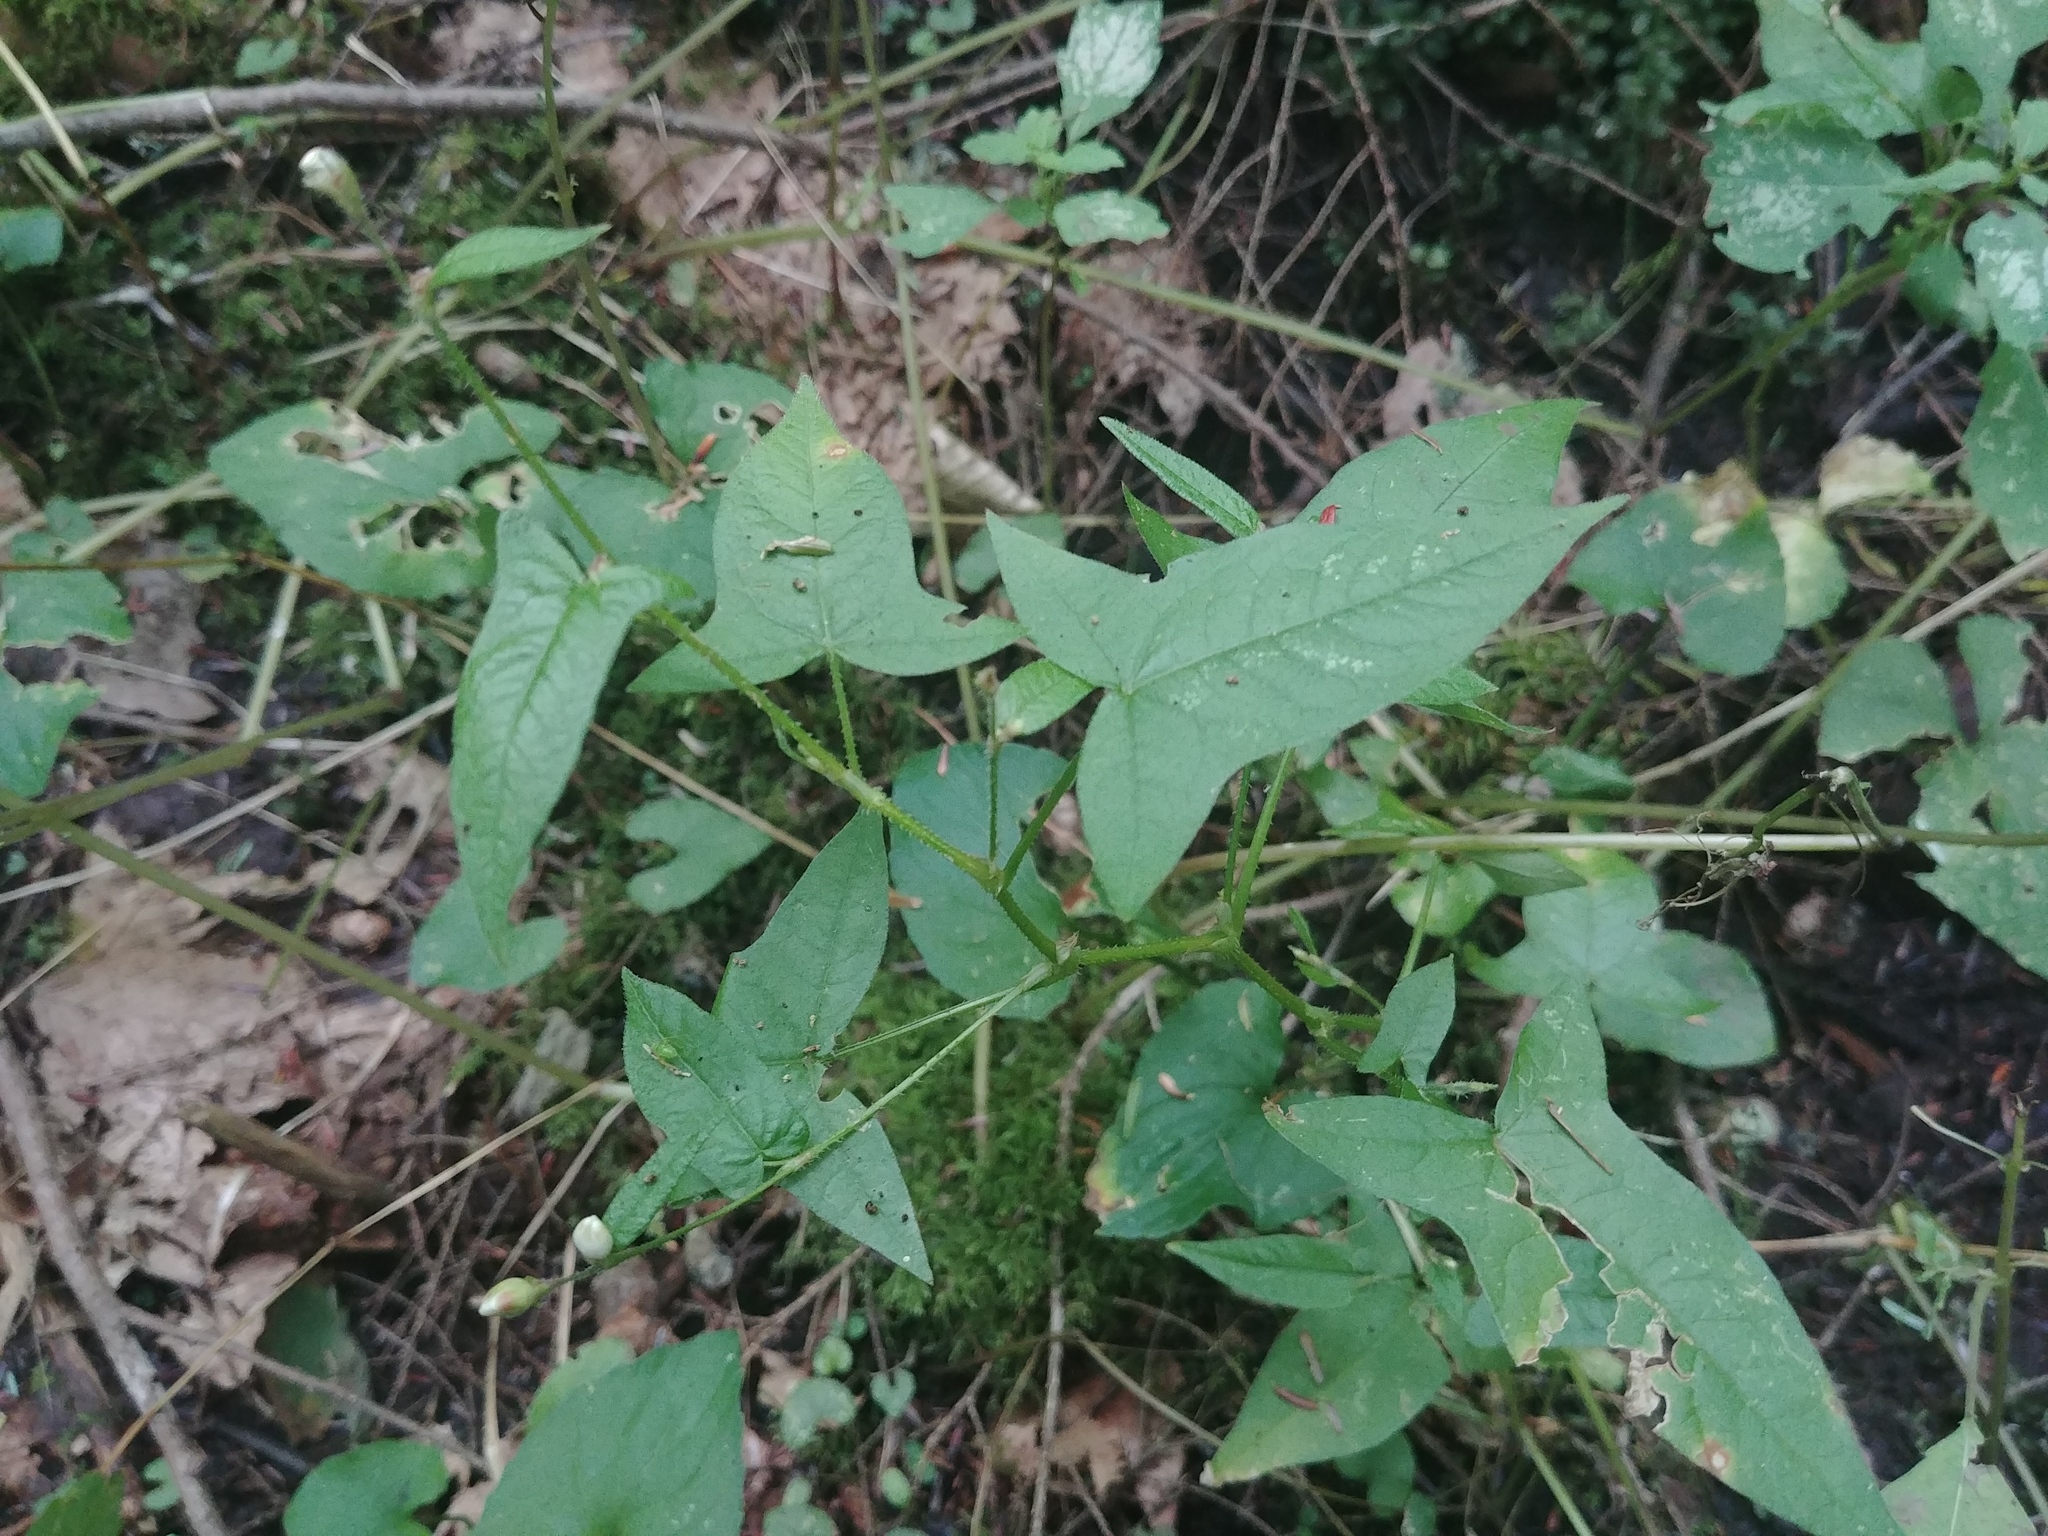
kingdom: Plantae
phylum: Tracheophyta
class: Magnoliopsida
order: Caryophyllales
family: Polygonaceae
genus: Persicaria
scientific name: Persicaria arifolia
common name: Halberd-leaved tear-thumb
